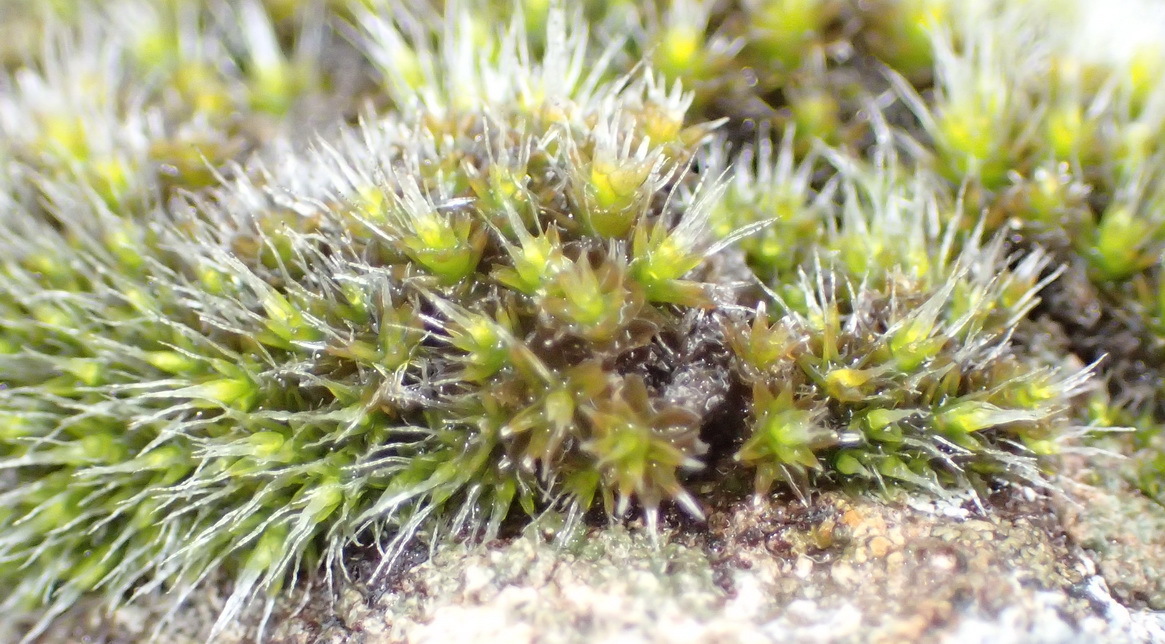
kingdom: Plantae
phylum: Bryophyta
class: Bryopsida
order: Grimmiales
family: Grimmiaceae
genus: Grimmia
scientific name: Grimmia laevigata
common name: Hoary grimmia
